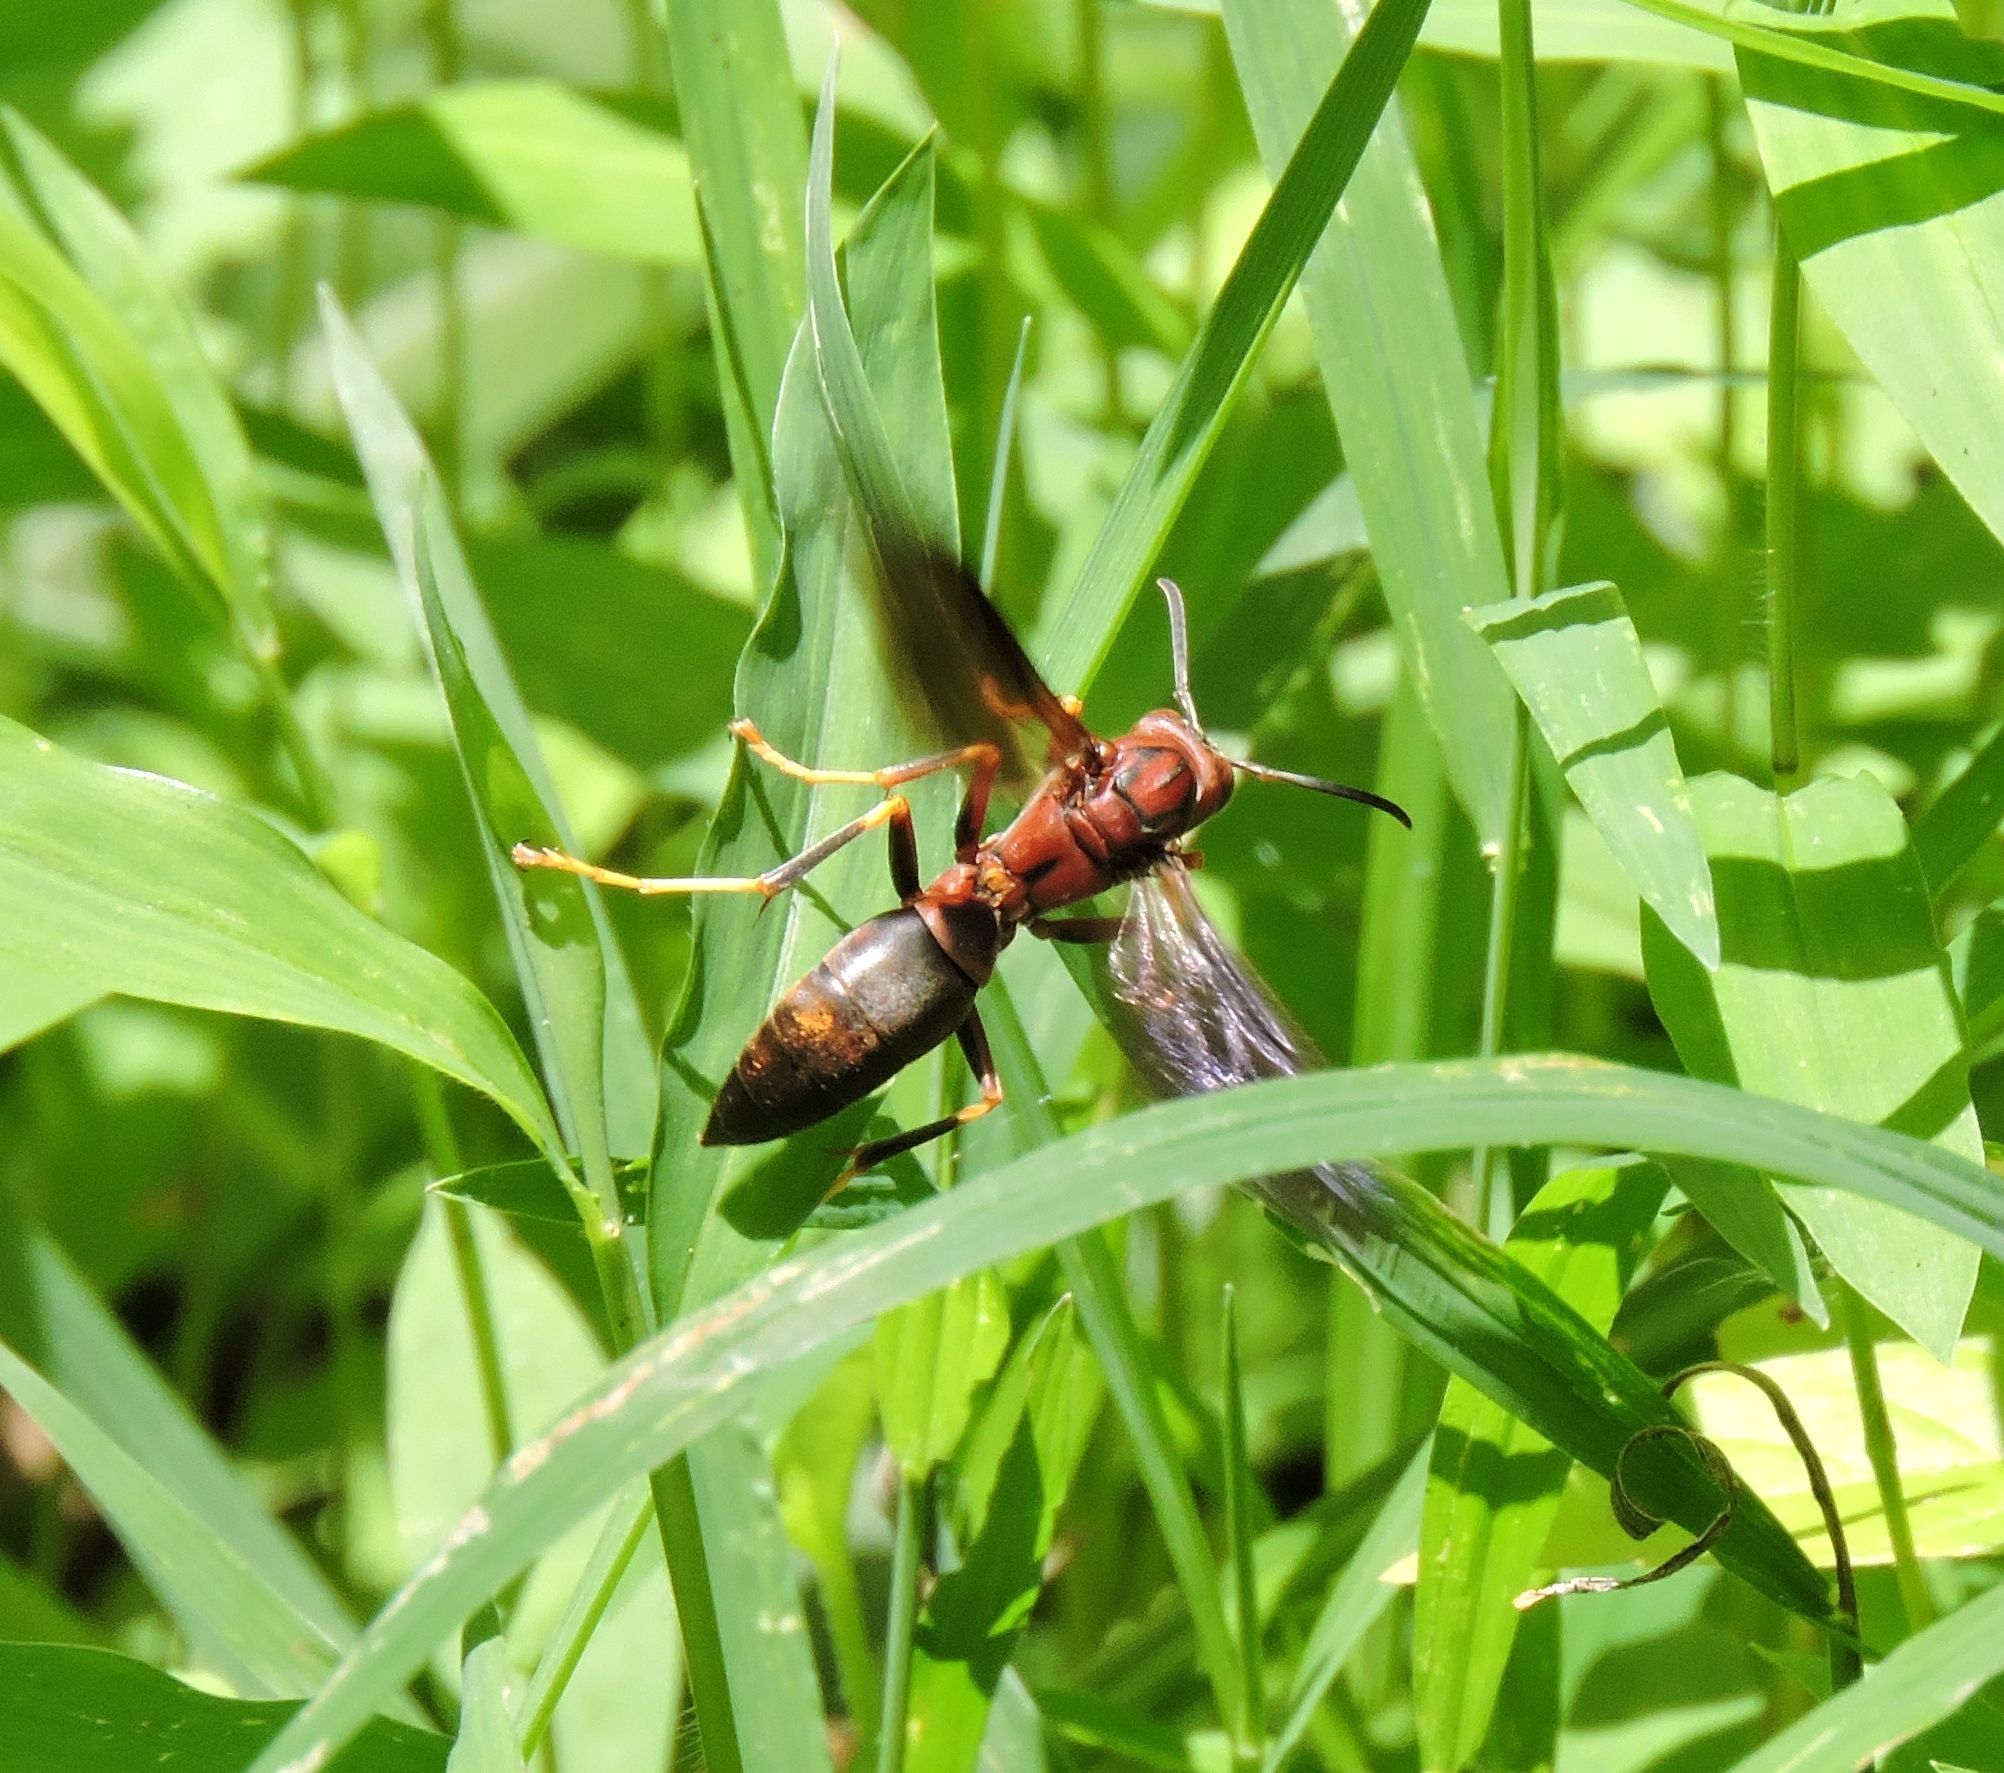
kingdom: Animalia
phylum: Arthropoda
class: Insecta
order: Hymenoptera
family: Eumenidae
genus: Polistes
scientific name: Polistes metricus
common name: Metric paper wasp
